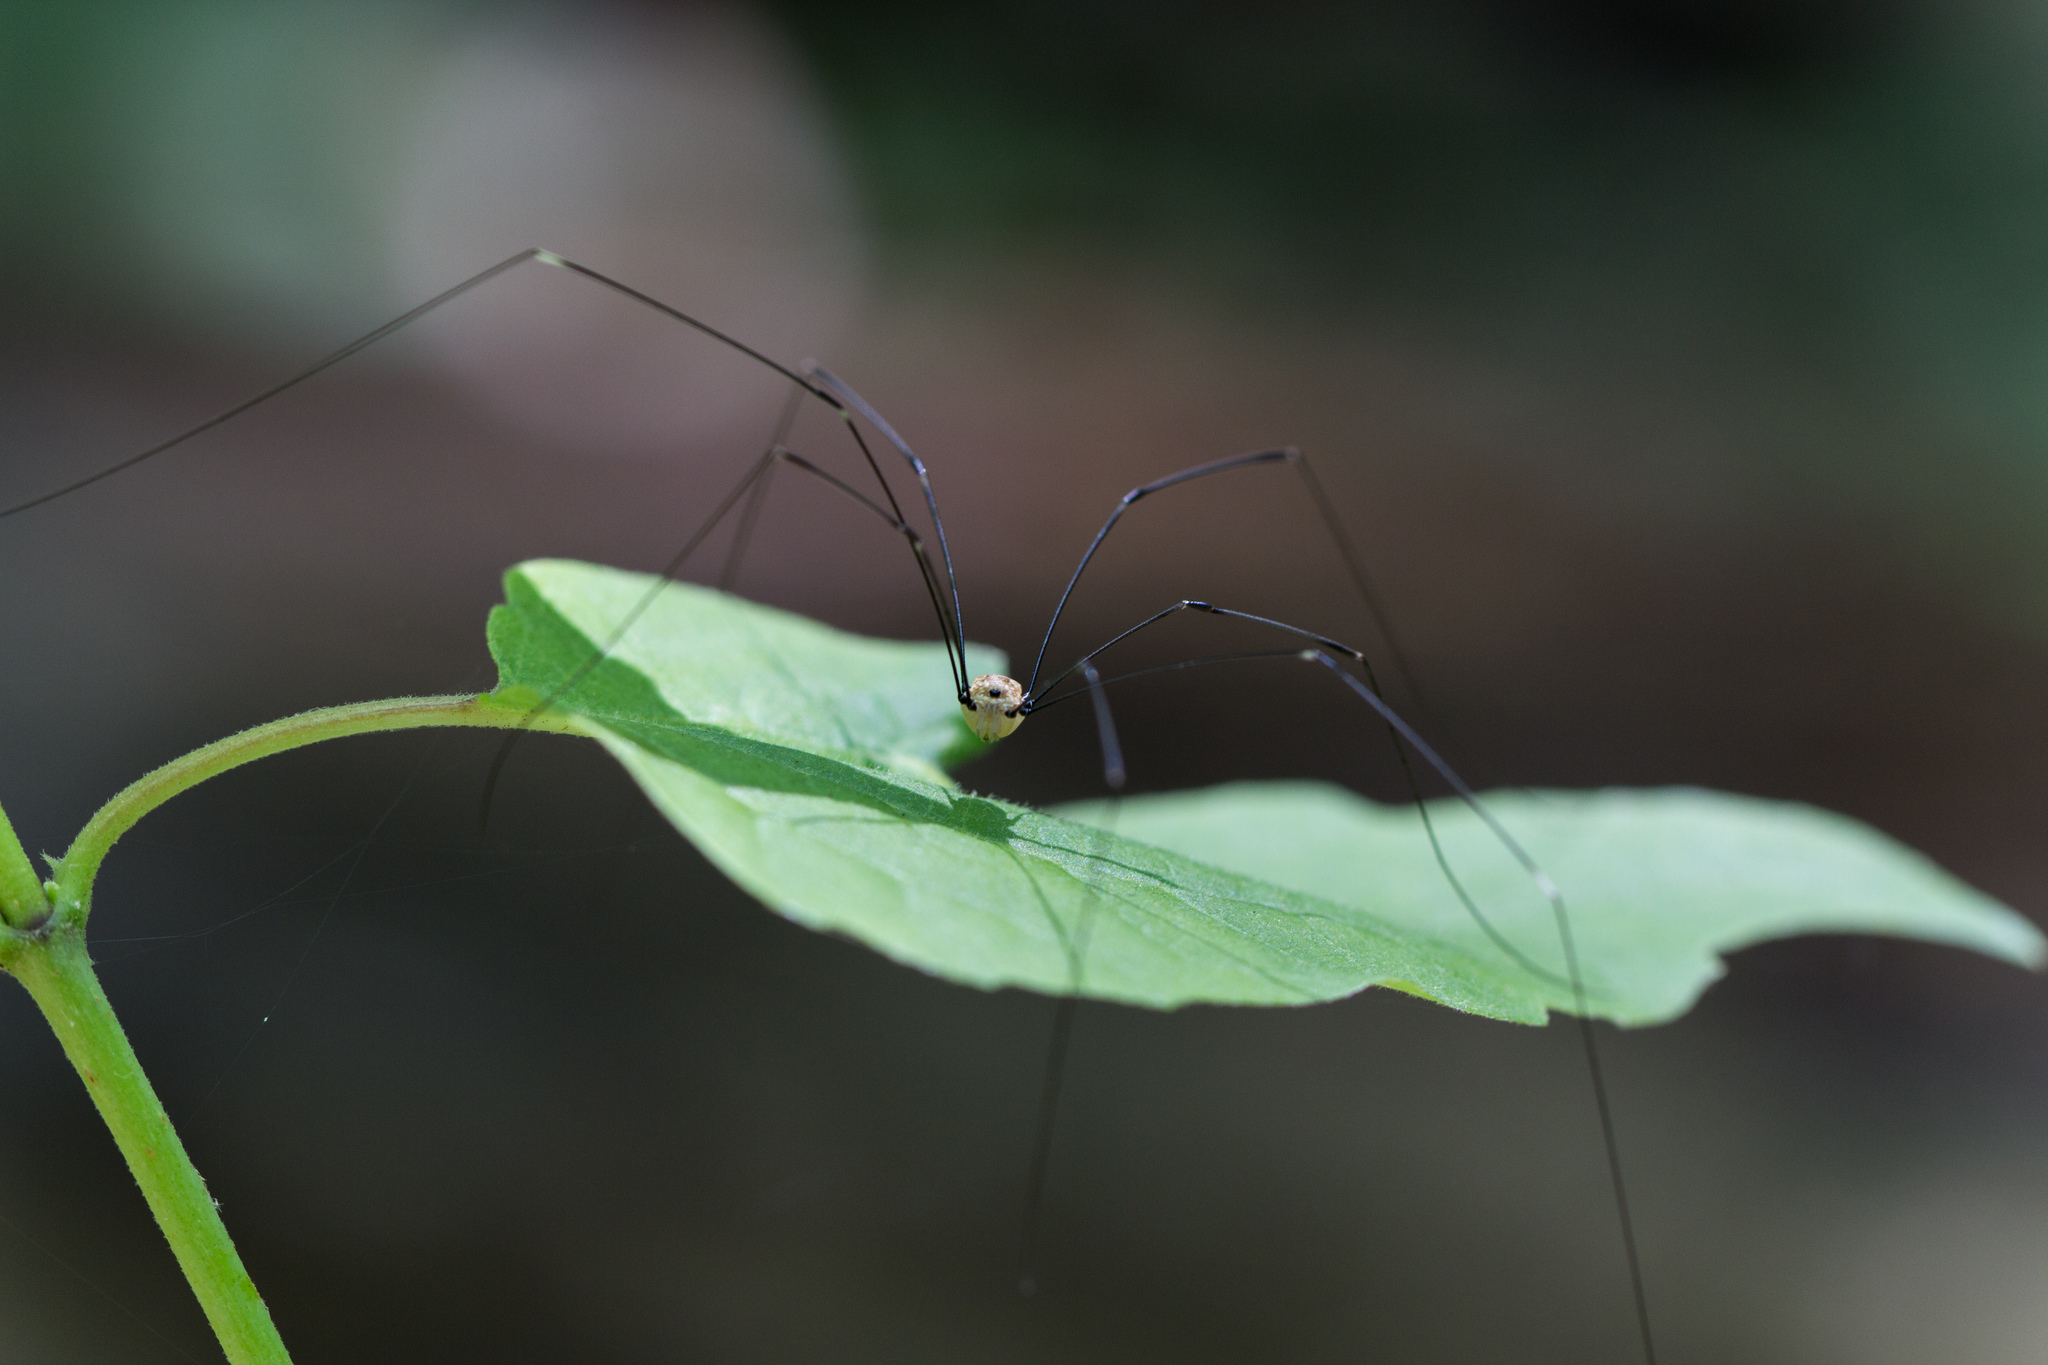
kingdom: Animalia
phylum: Arthropoda
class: Arachnida
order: Opiliones
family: Sclerosomatidae
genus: Leiobunum
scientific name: Leiobunum aldrichi
